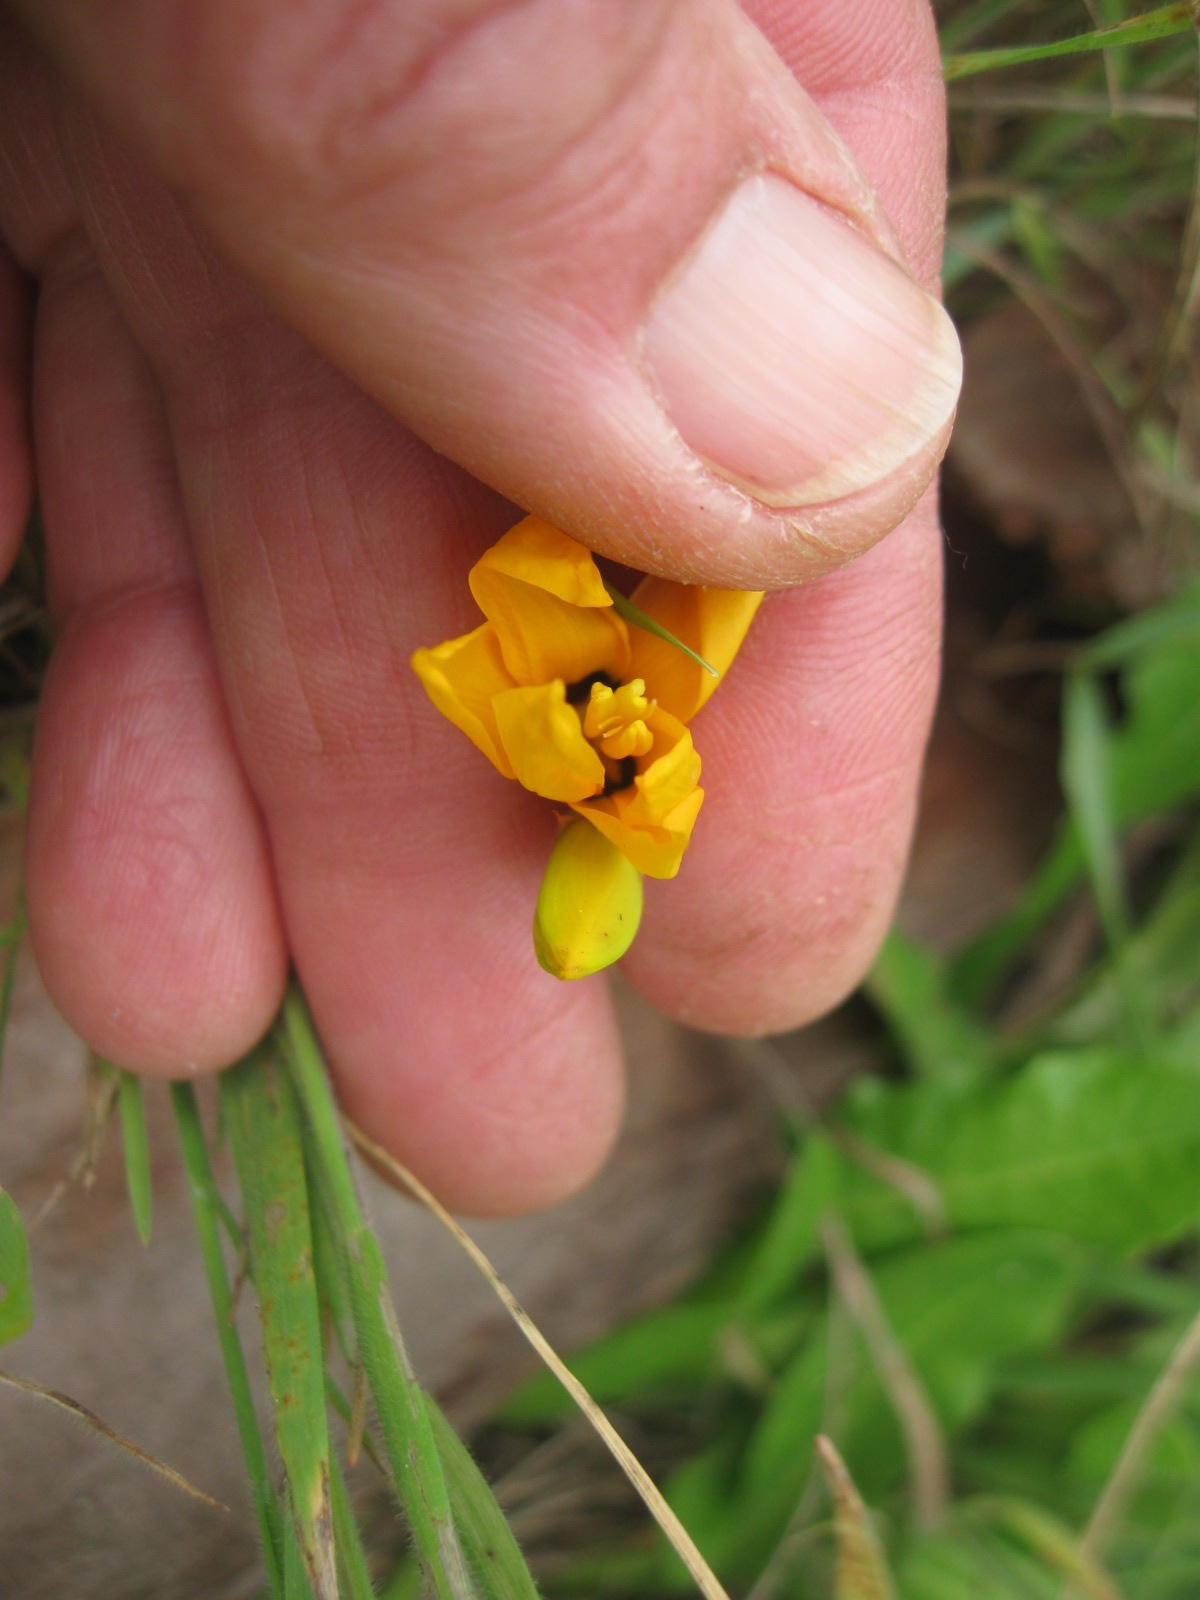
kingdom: Plantae
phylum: Tracheophyta
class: Liliopsida
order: Asparagales
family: Iridaceae
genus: Ixia
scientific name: Ixia calendulacea
